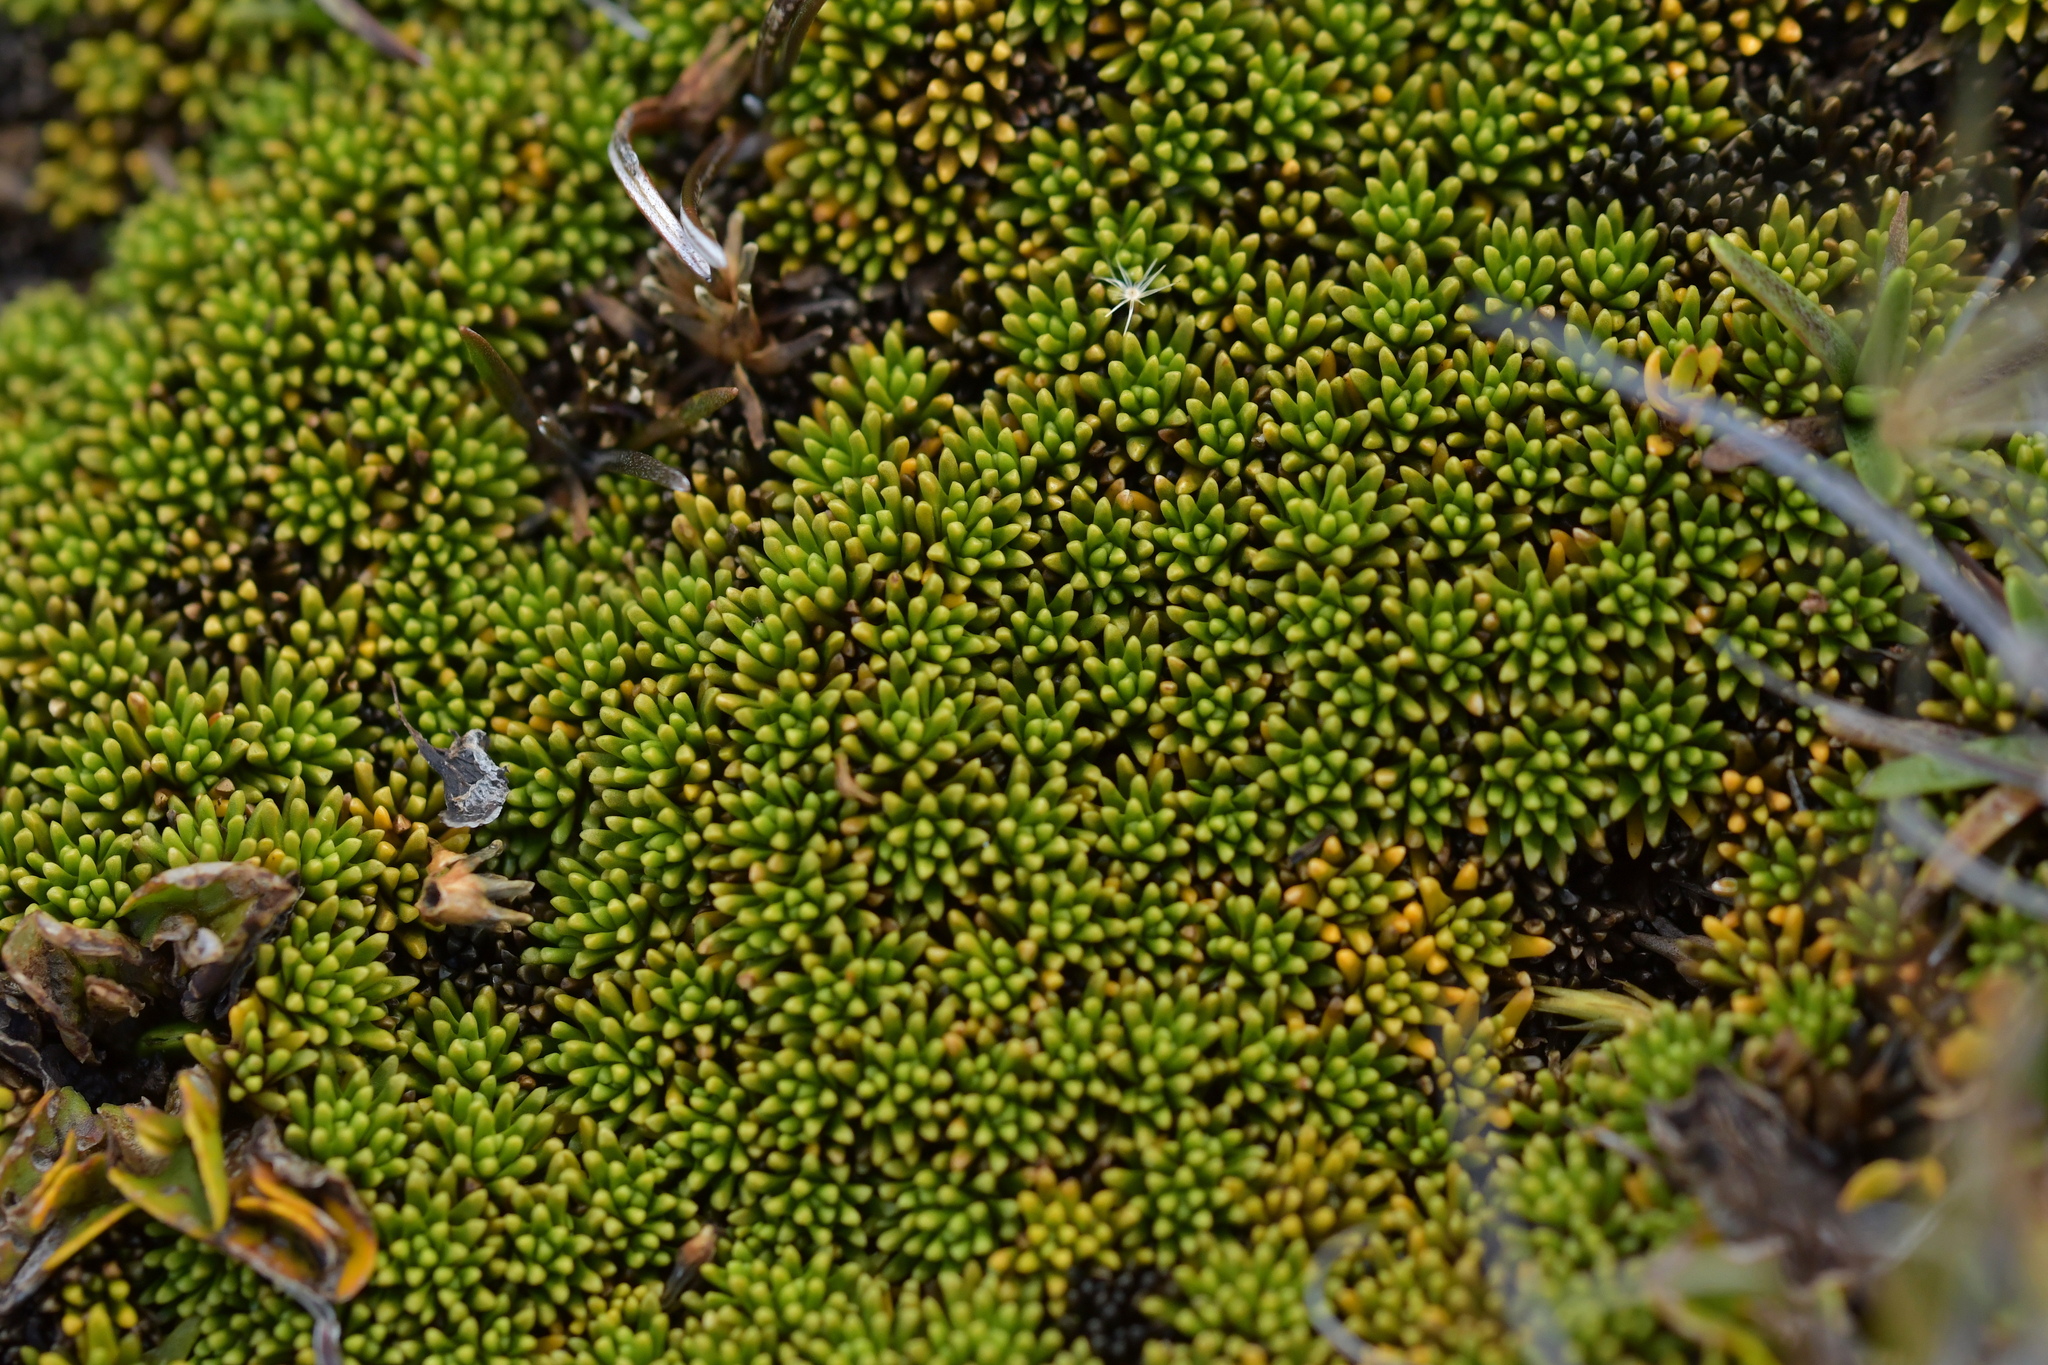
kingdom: Plantae
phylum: Tracheophyta
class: Magnoliopsida
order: Asterales
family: Stylidiaceae
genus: Phyllachne
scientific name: Phyllachne colensoi
